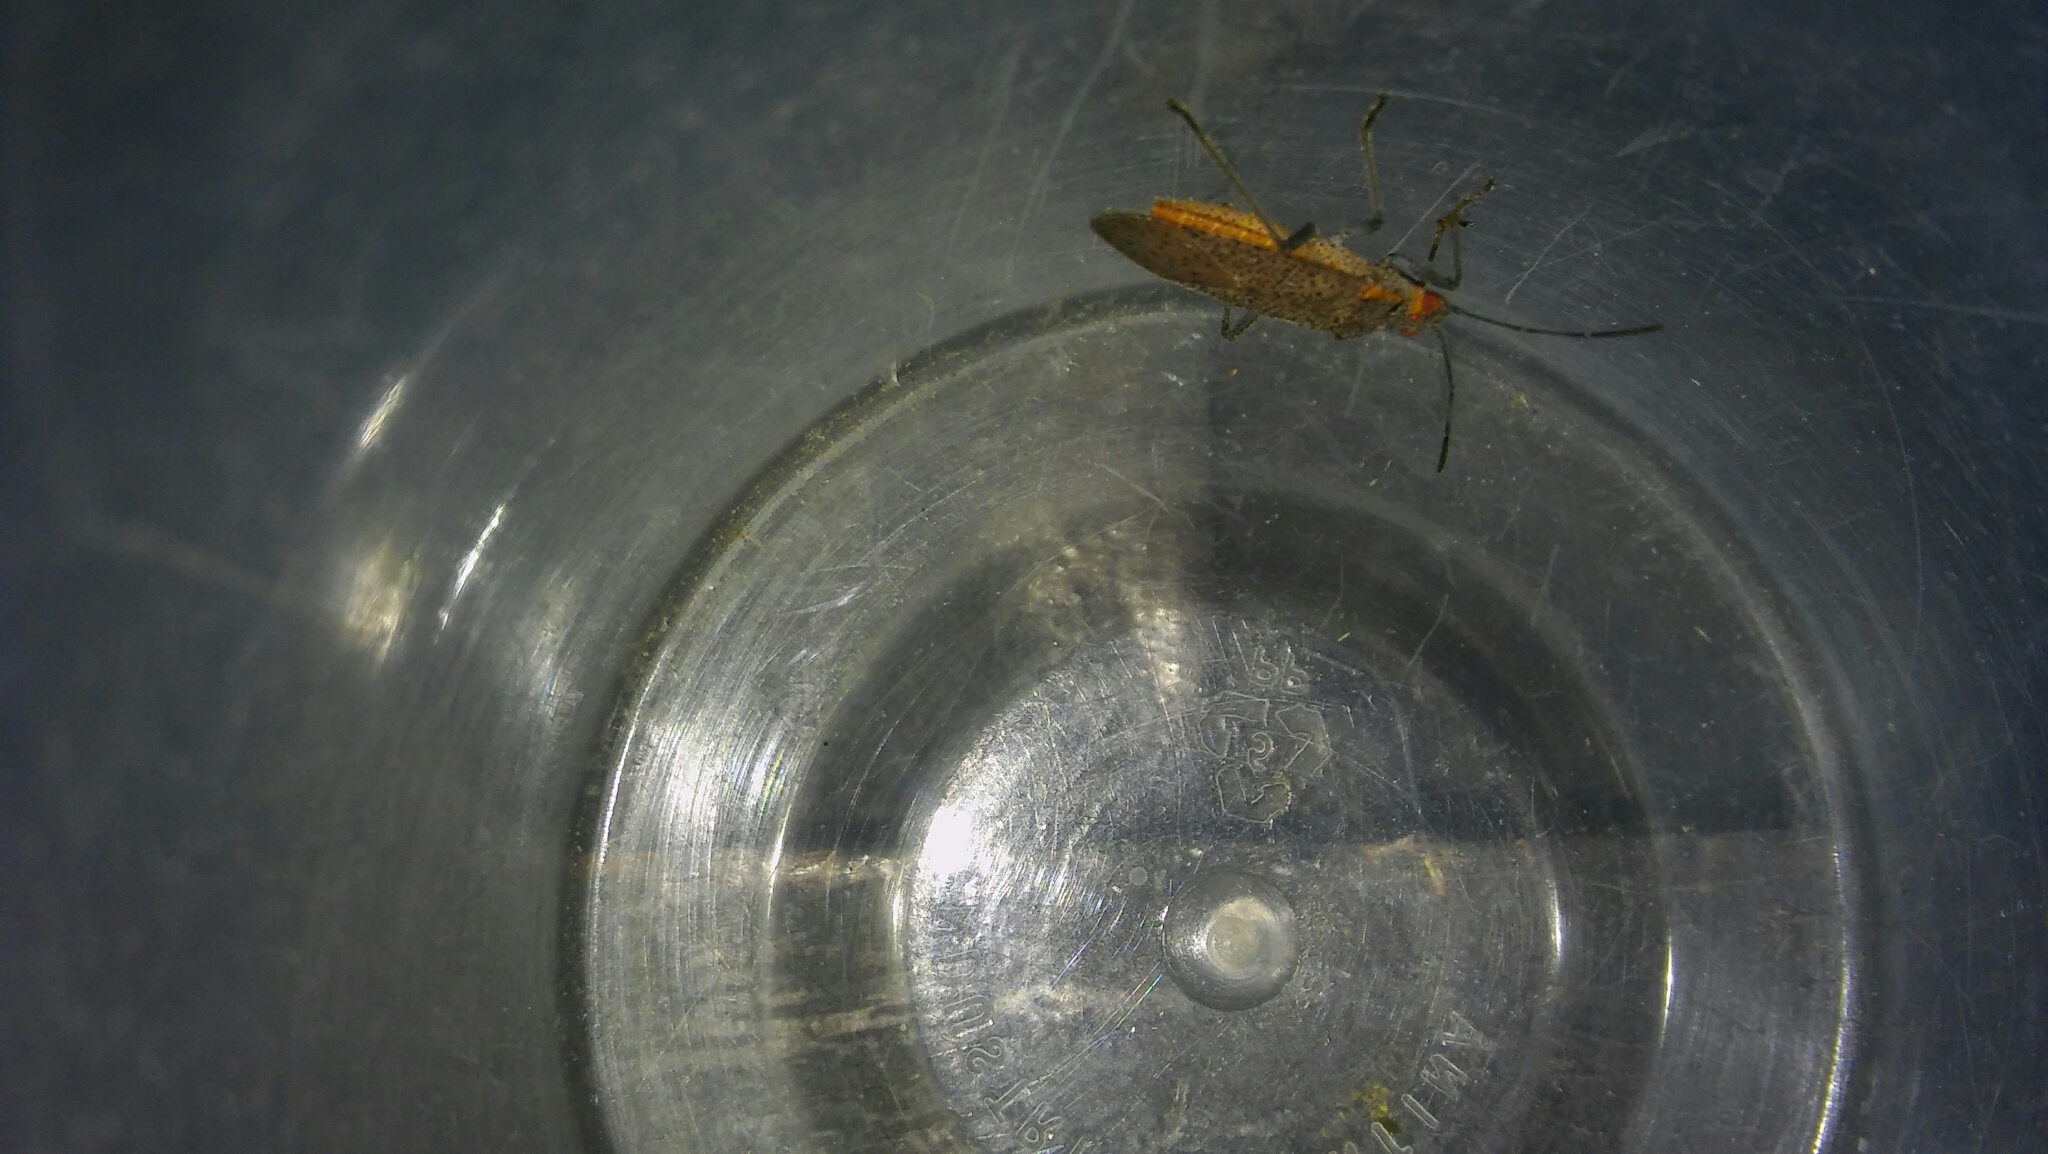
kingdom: Animalia
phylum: Arthropoda
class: Insecta
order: Hemiptera
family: Rhopalidae
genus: Jadera
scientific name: Jadera coturnix
